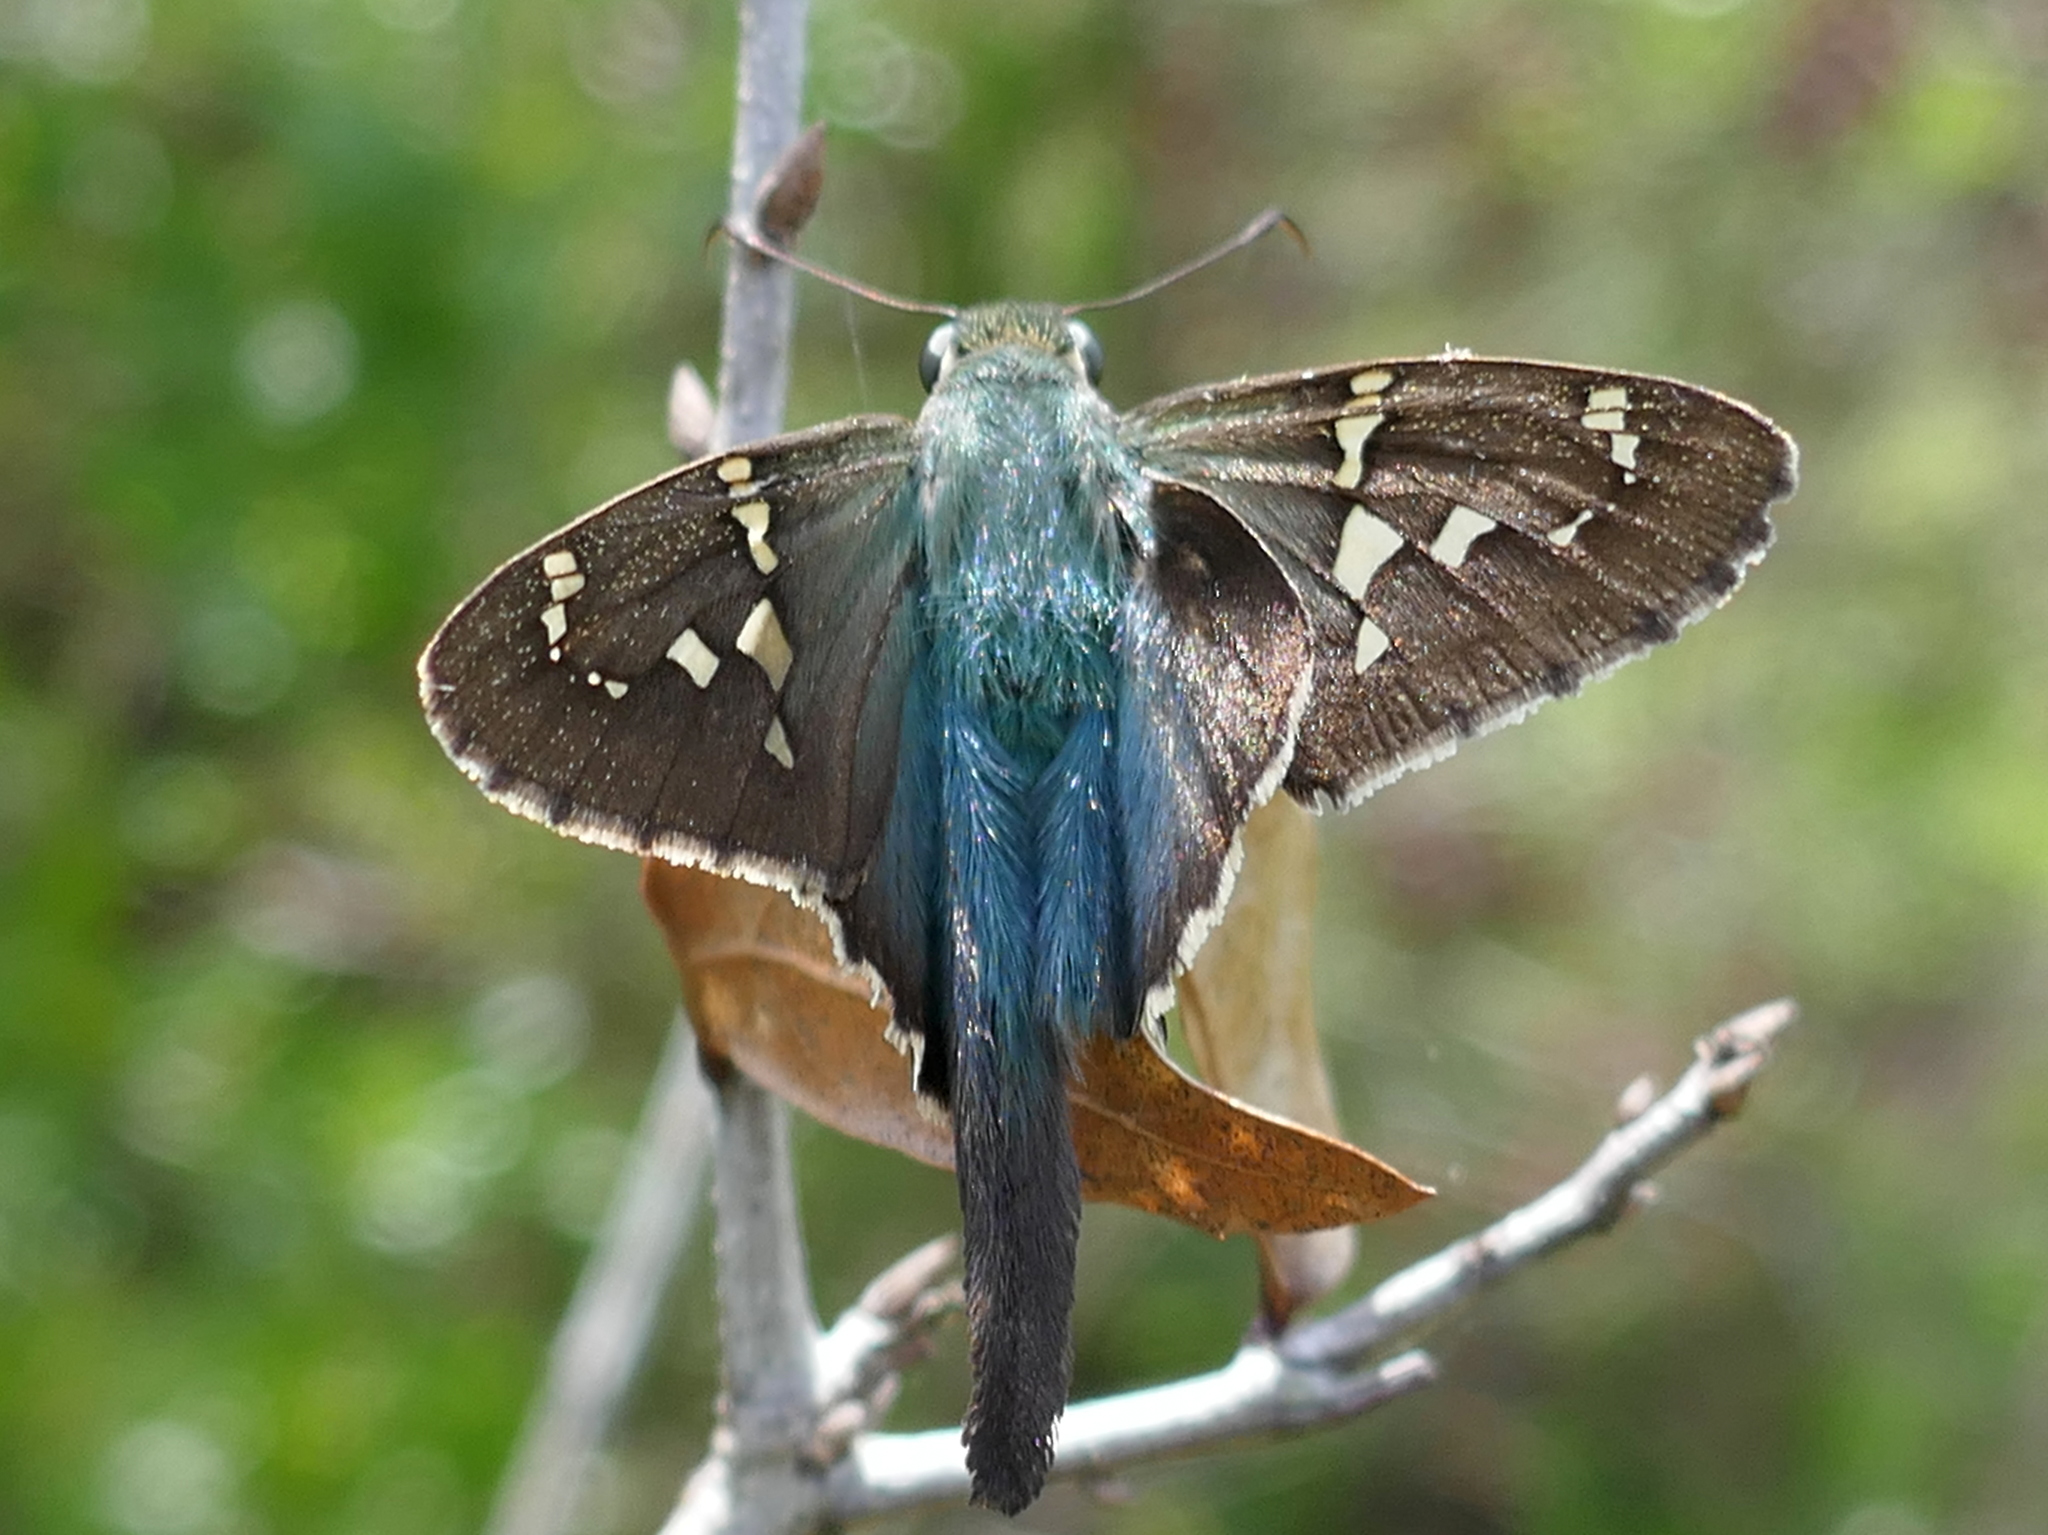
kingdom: Animalia
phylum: Arthropoda
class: Insecta
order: Lepidoptera
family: Hesperiidae
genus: Urbanus
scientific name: Urbanus proteus
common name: Long-tailed skipper
